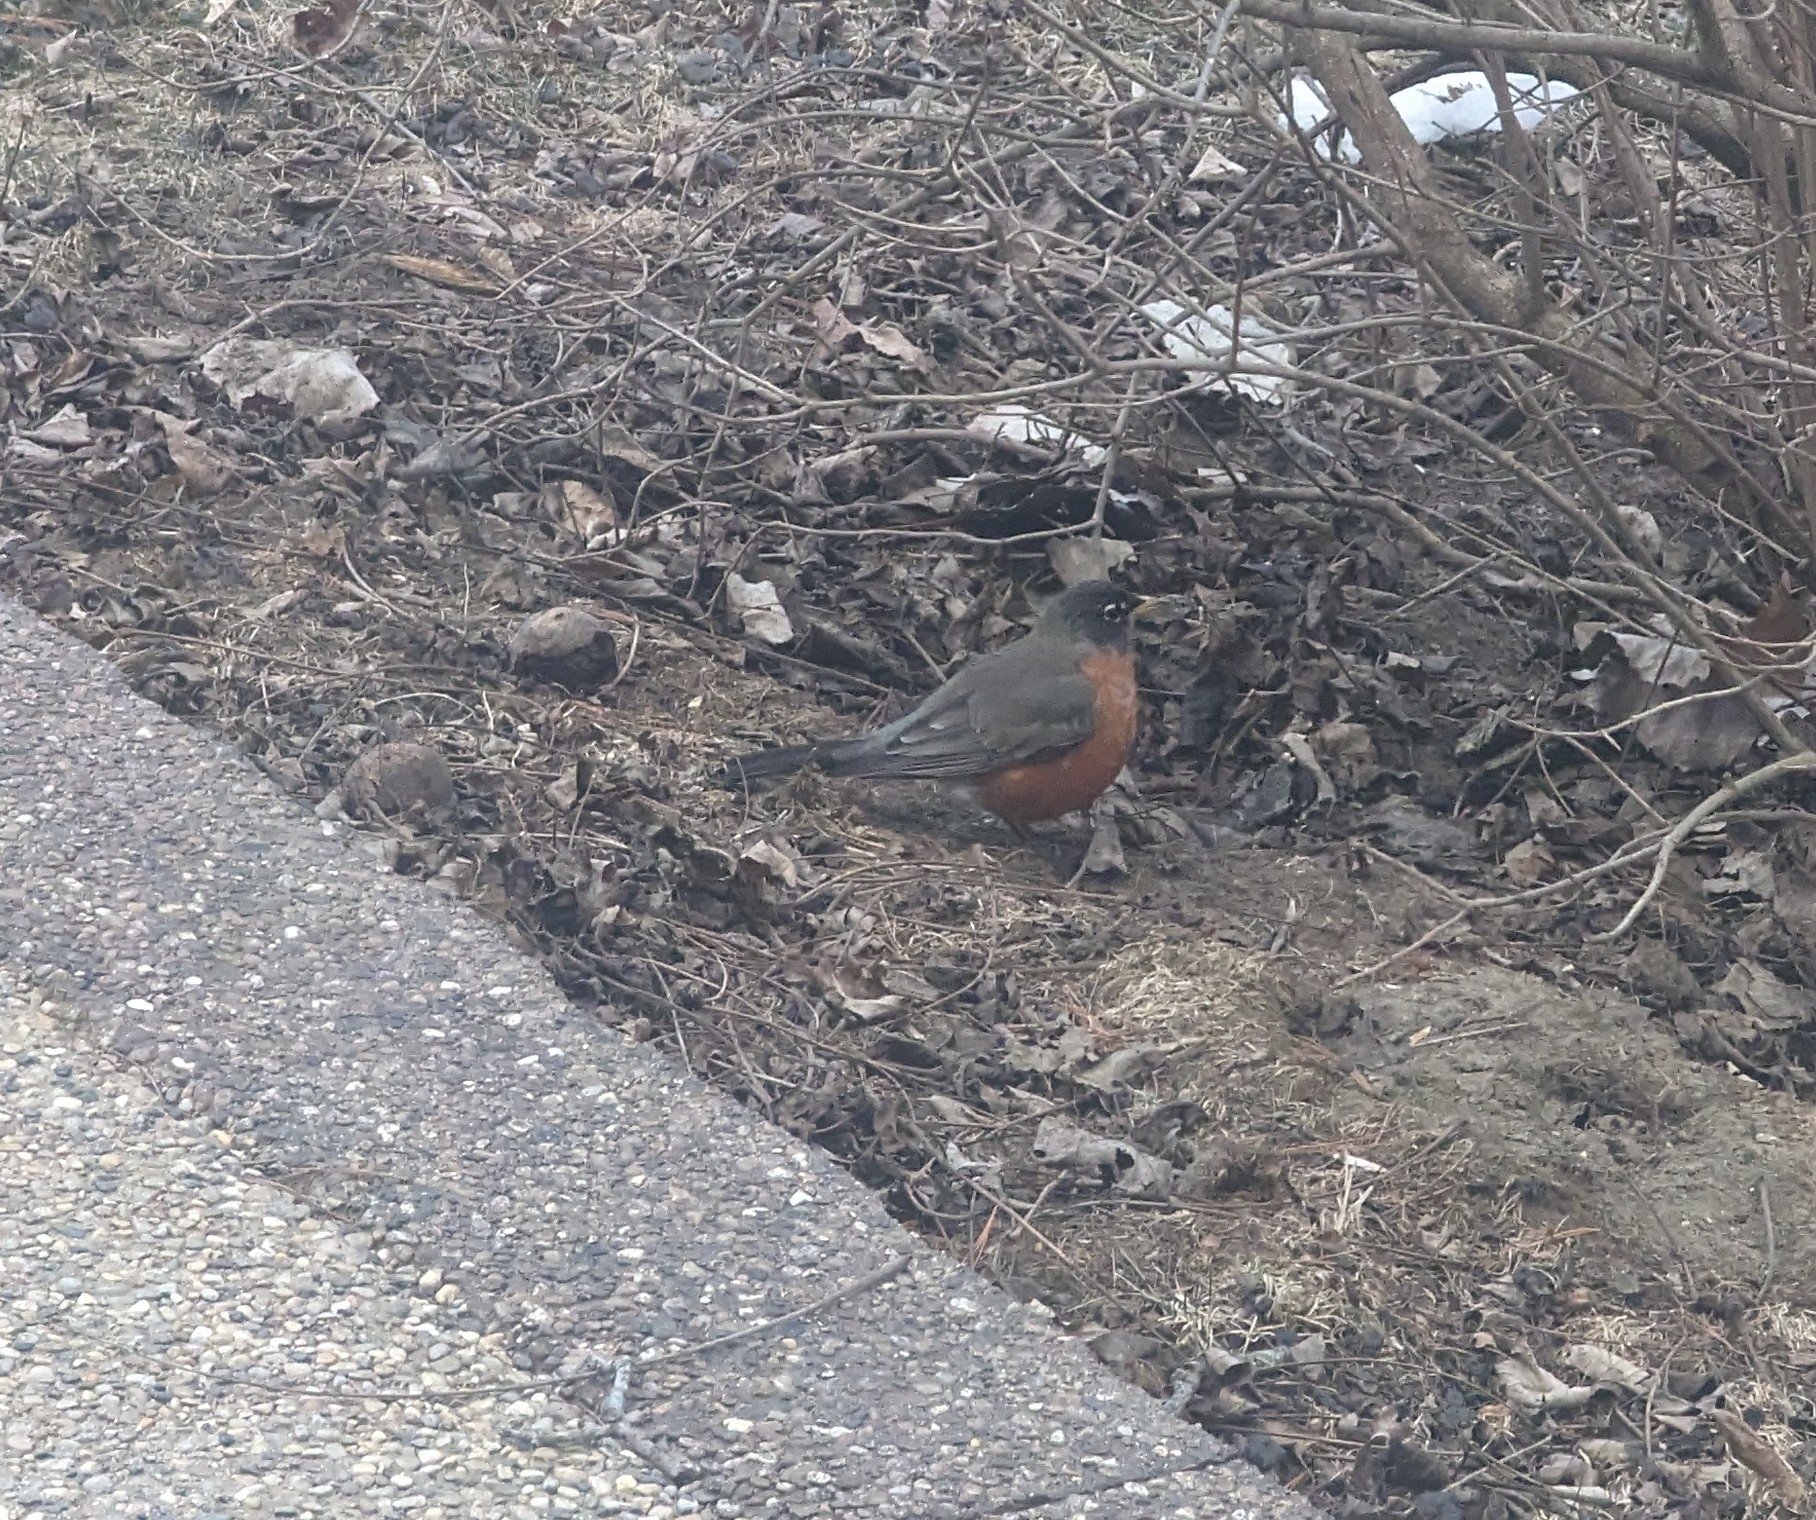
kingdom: Animalia
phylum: Chordata
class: Aves
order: Passeriformes
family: Turdidae
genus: Turdus
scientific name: Turdus migratorius
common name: American robin
